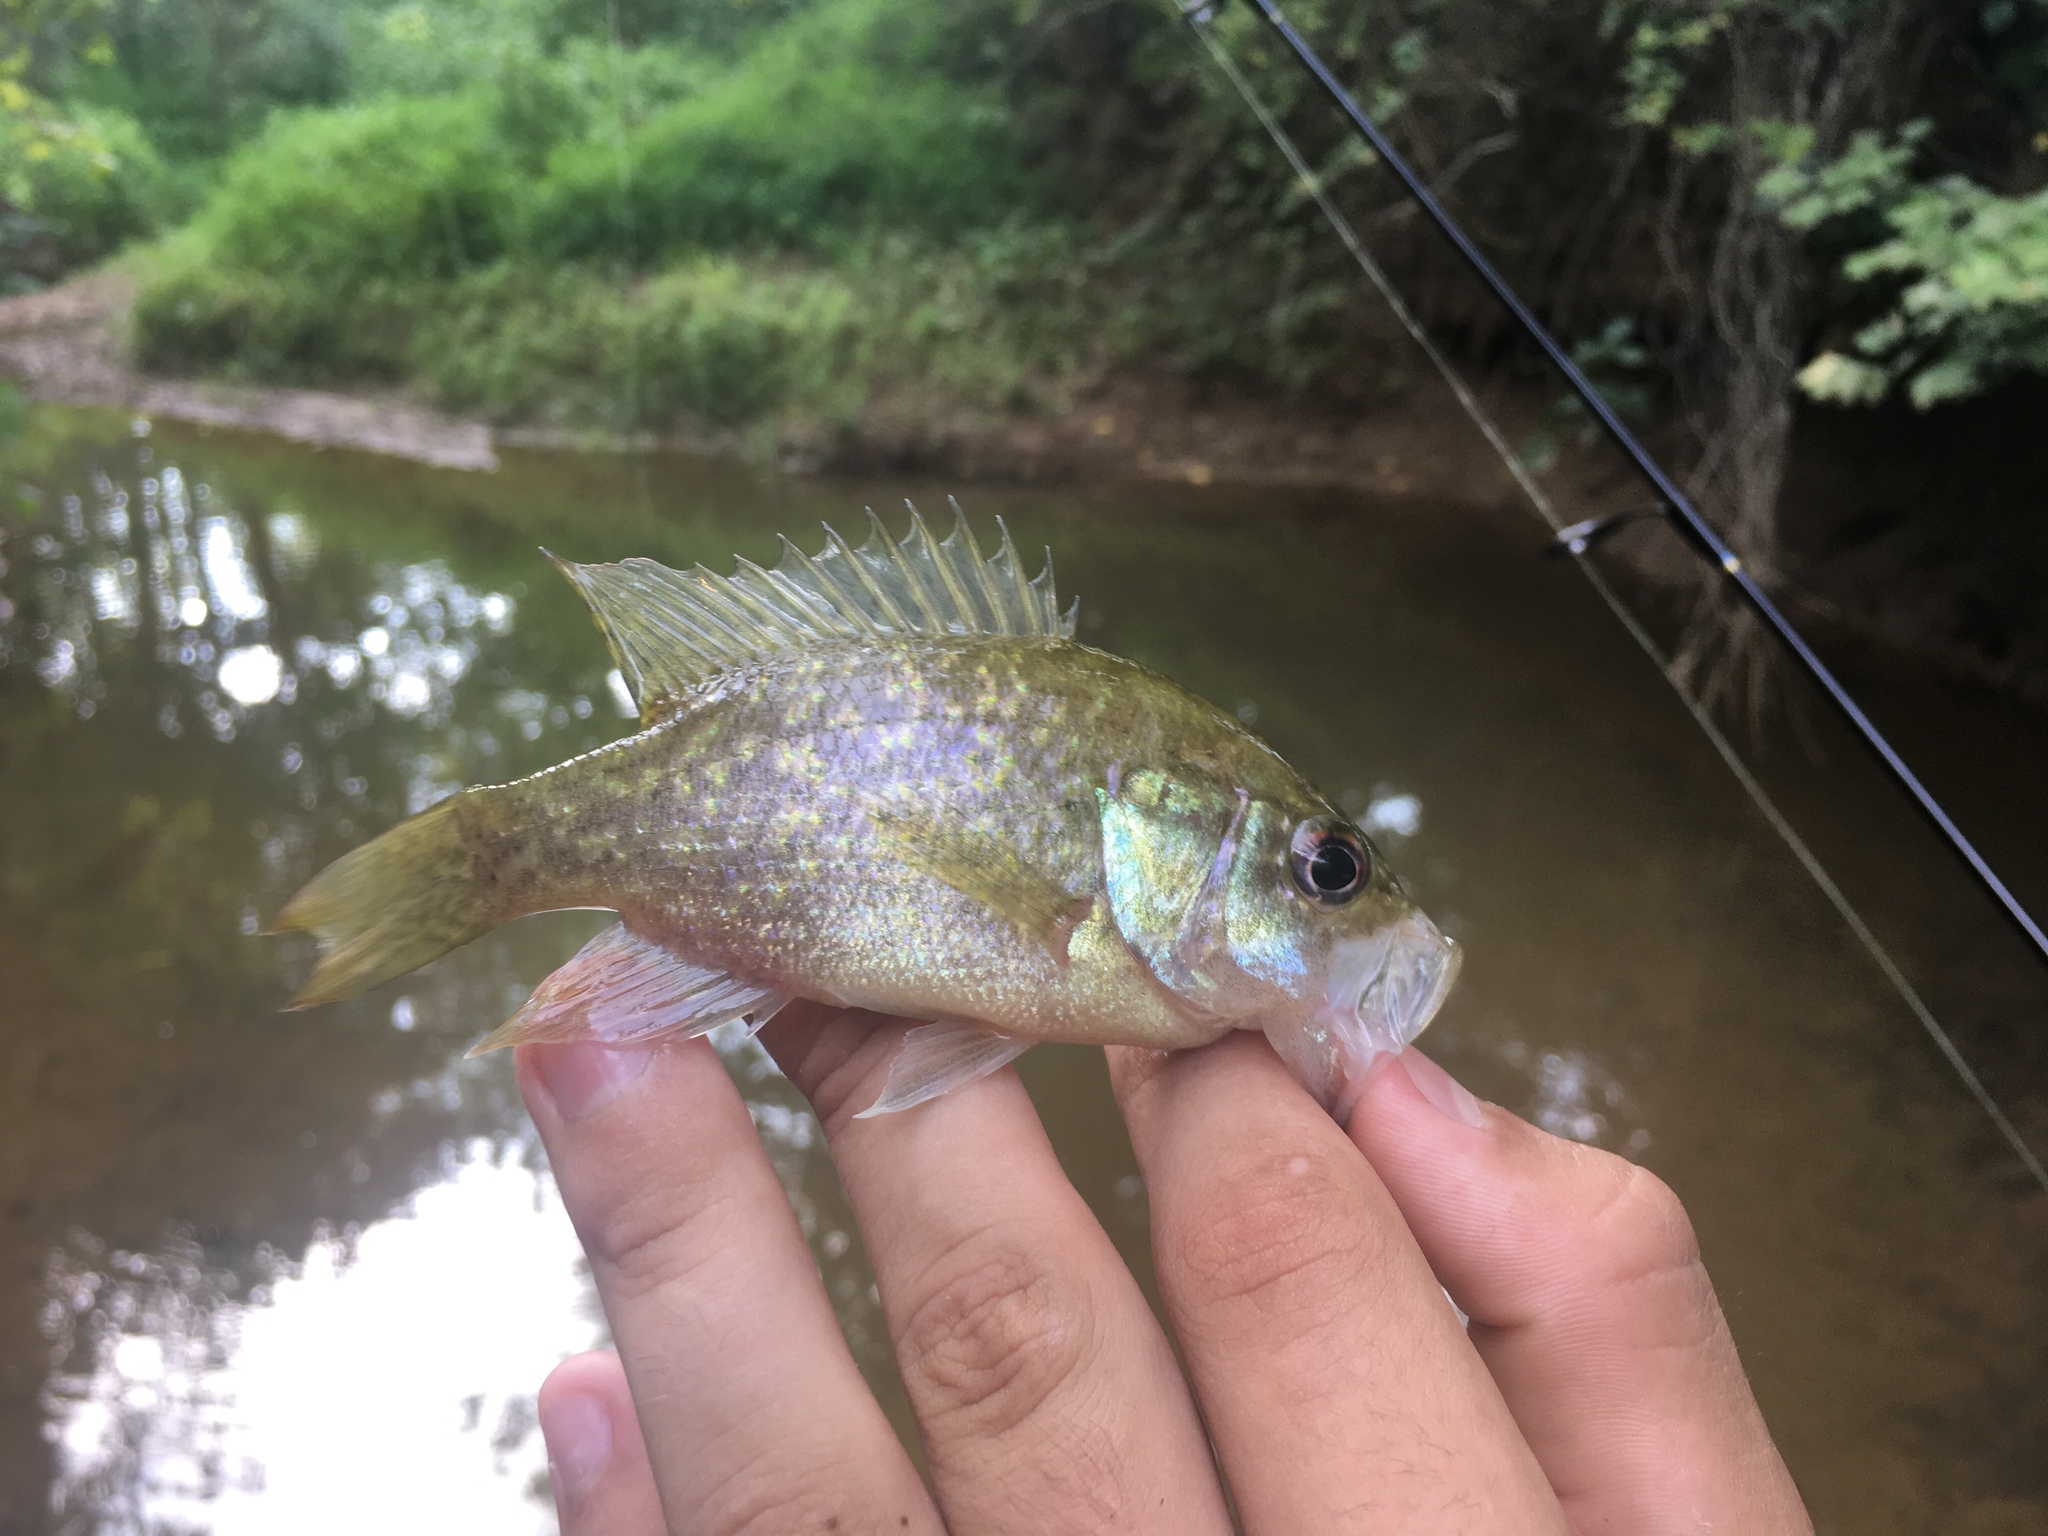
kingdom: Animalia
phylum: Chordata
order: Perciformes
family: Centrarchidae
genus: Lepomis
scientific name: Lepomis gulosus
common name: Warmouth
